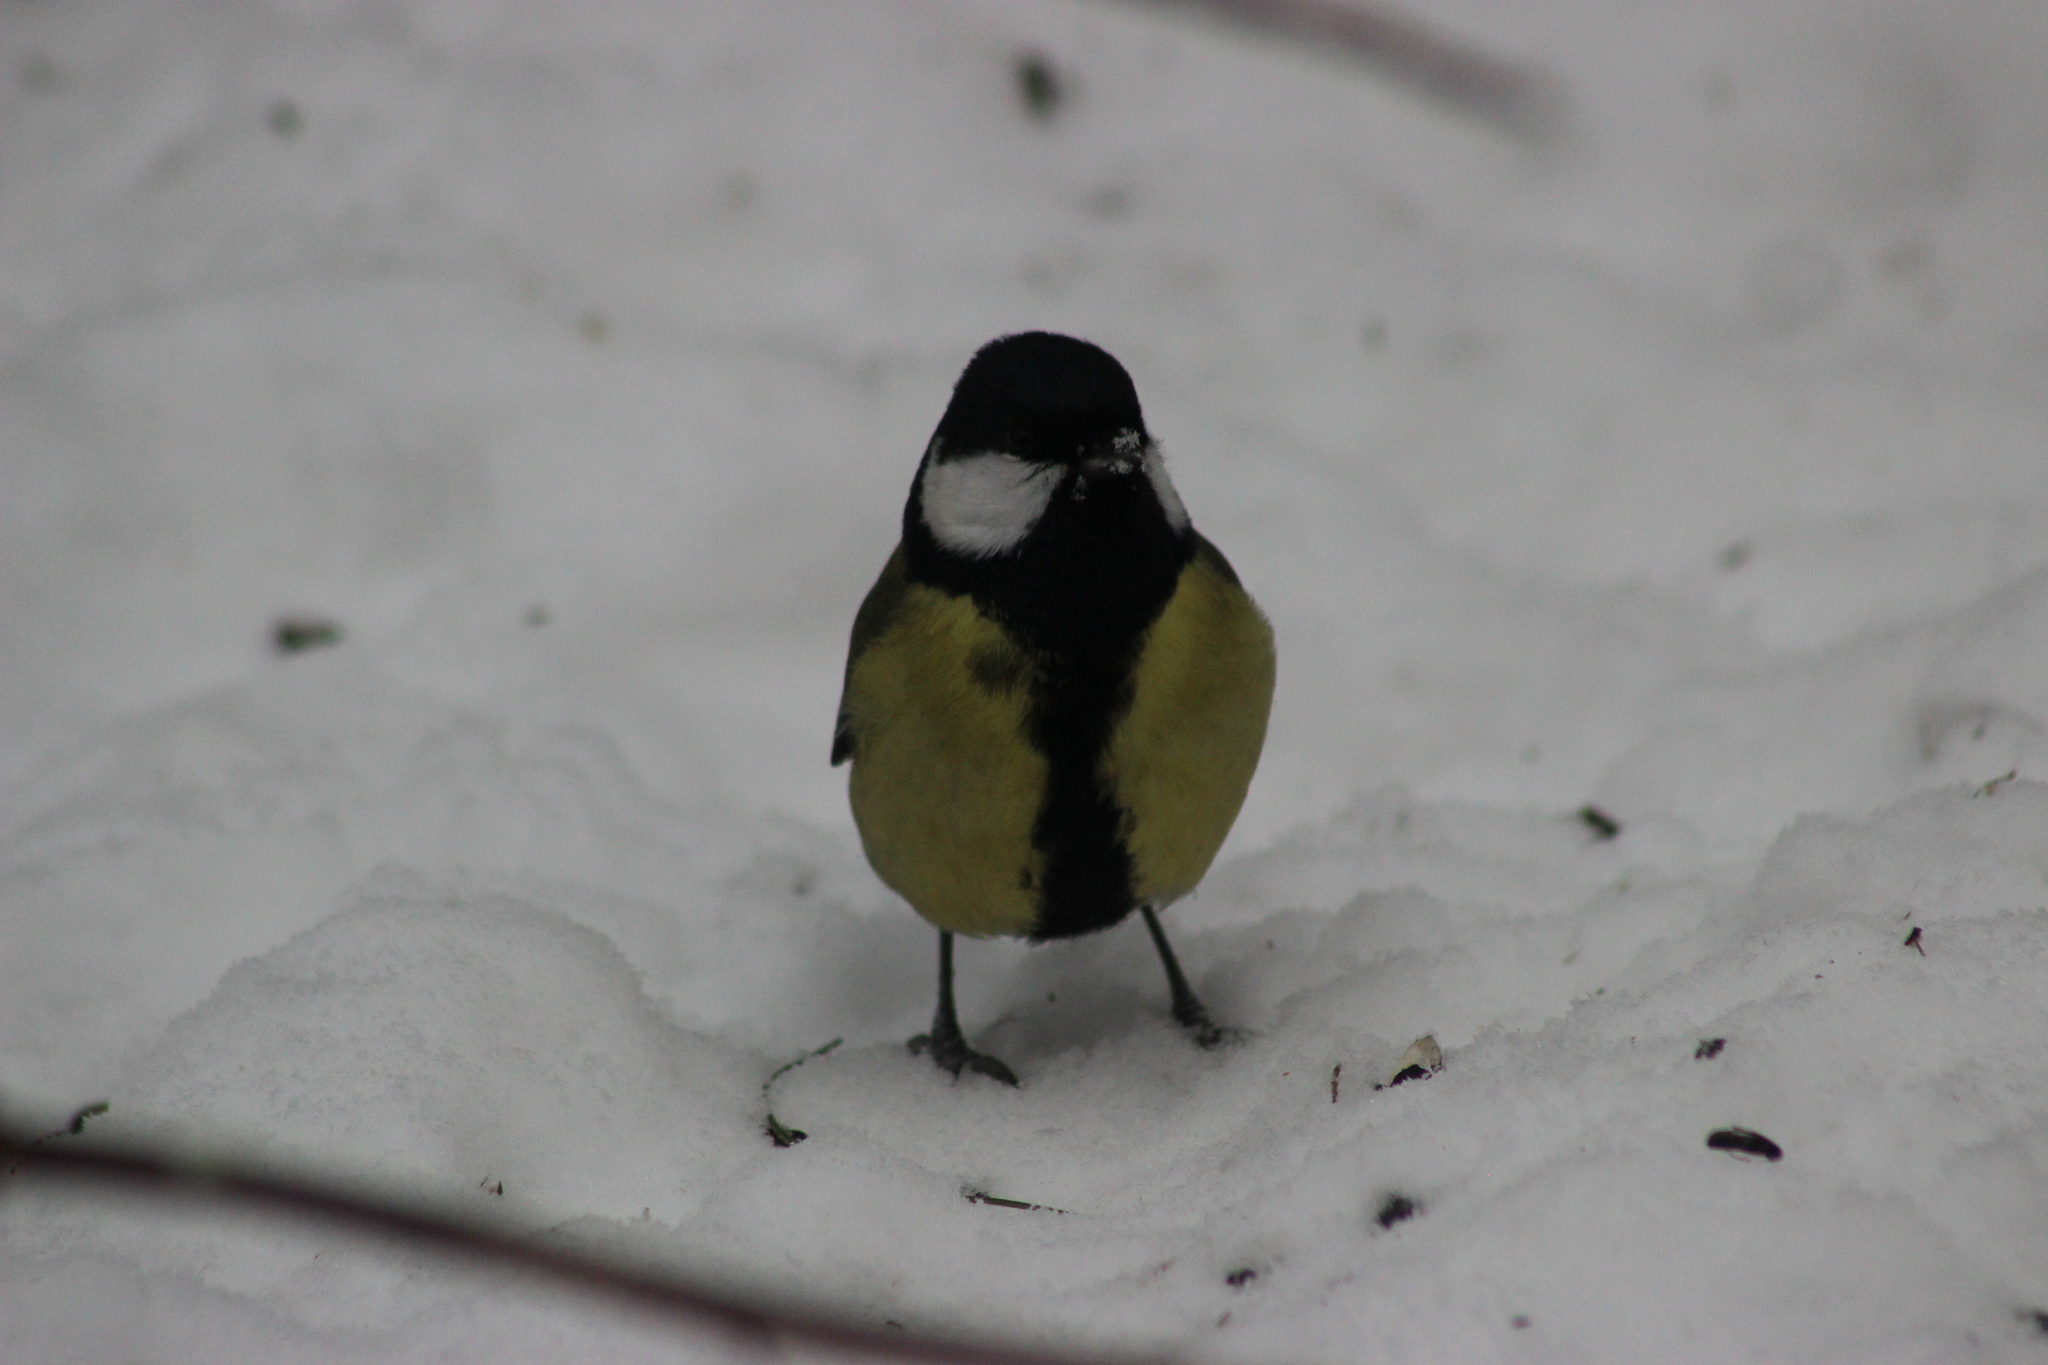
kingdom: Animalia
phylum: Chordata
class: Aves
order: Passeriformes
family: Paridae
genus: Parus
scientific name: Parus major
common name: Great tit
